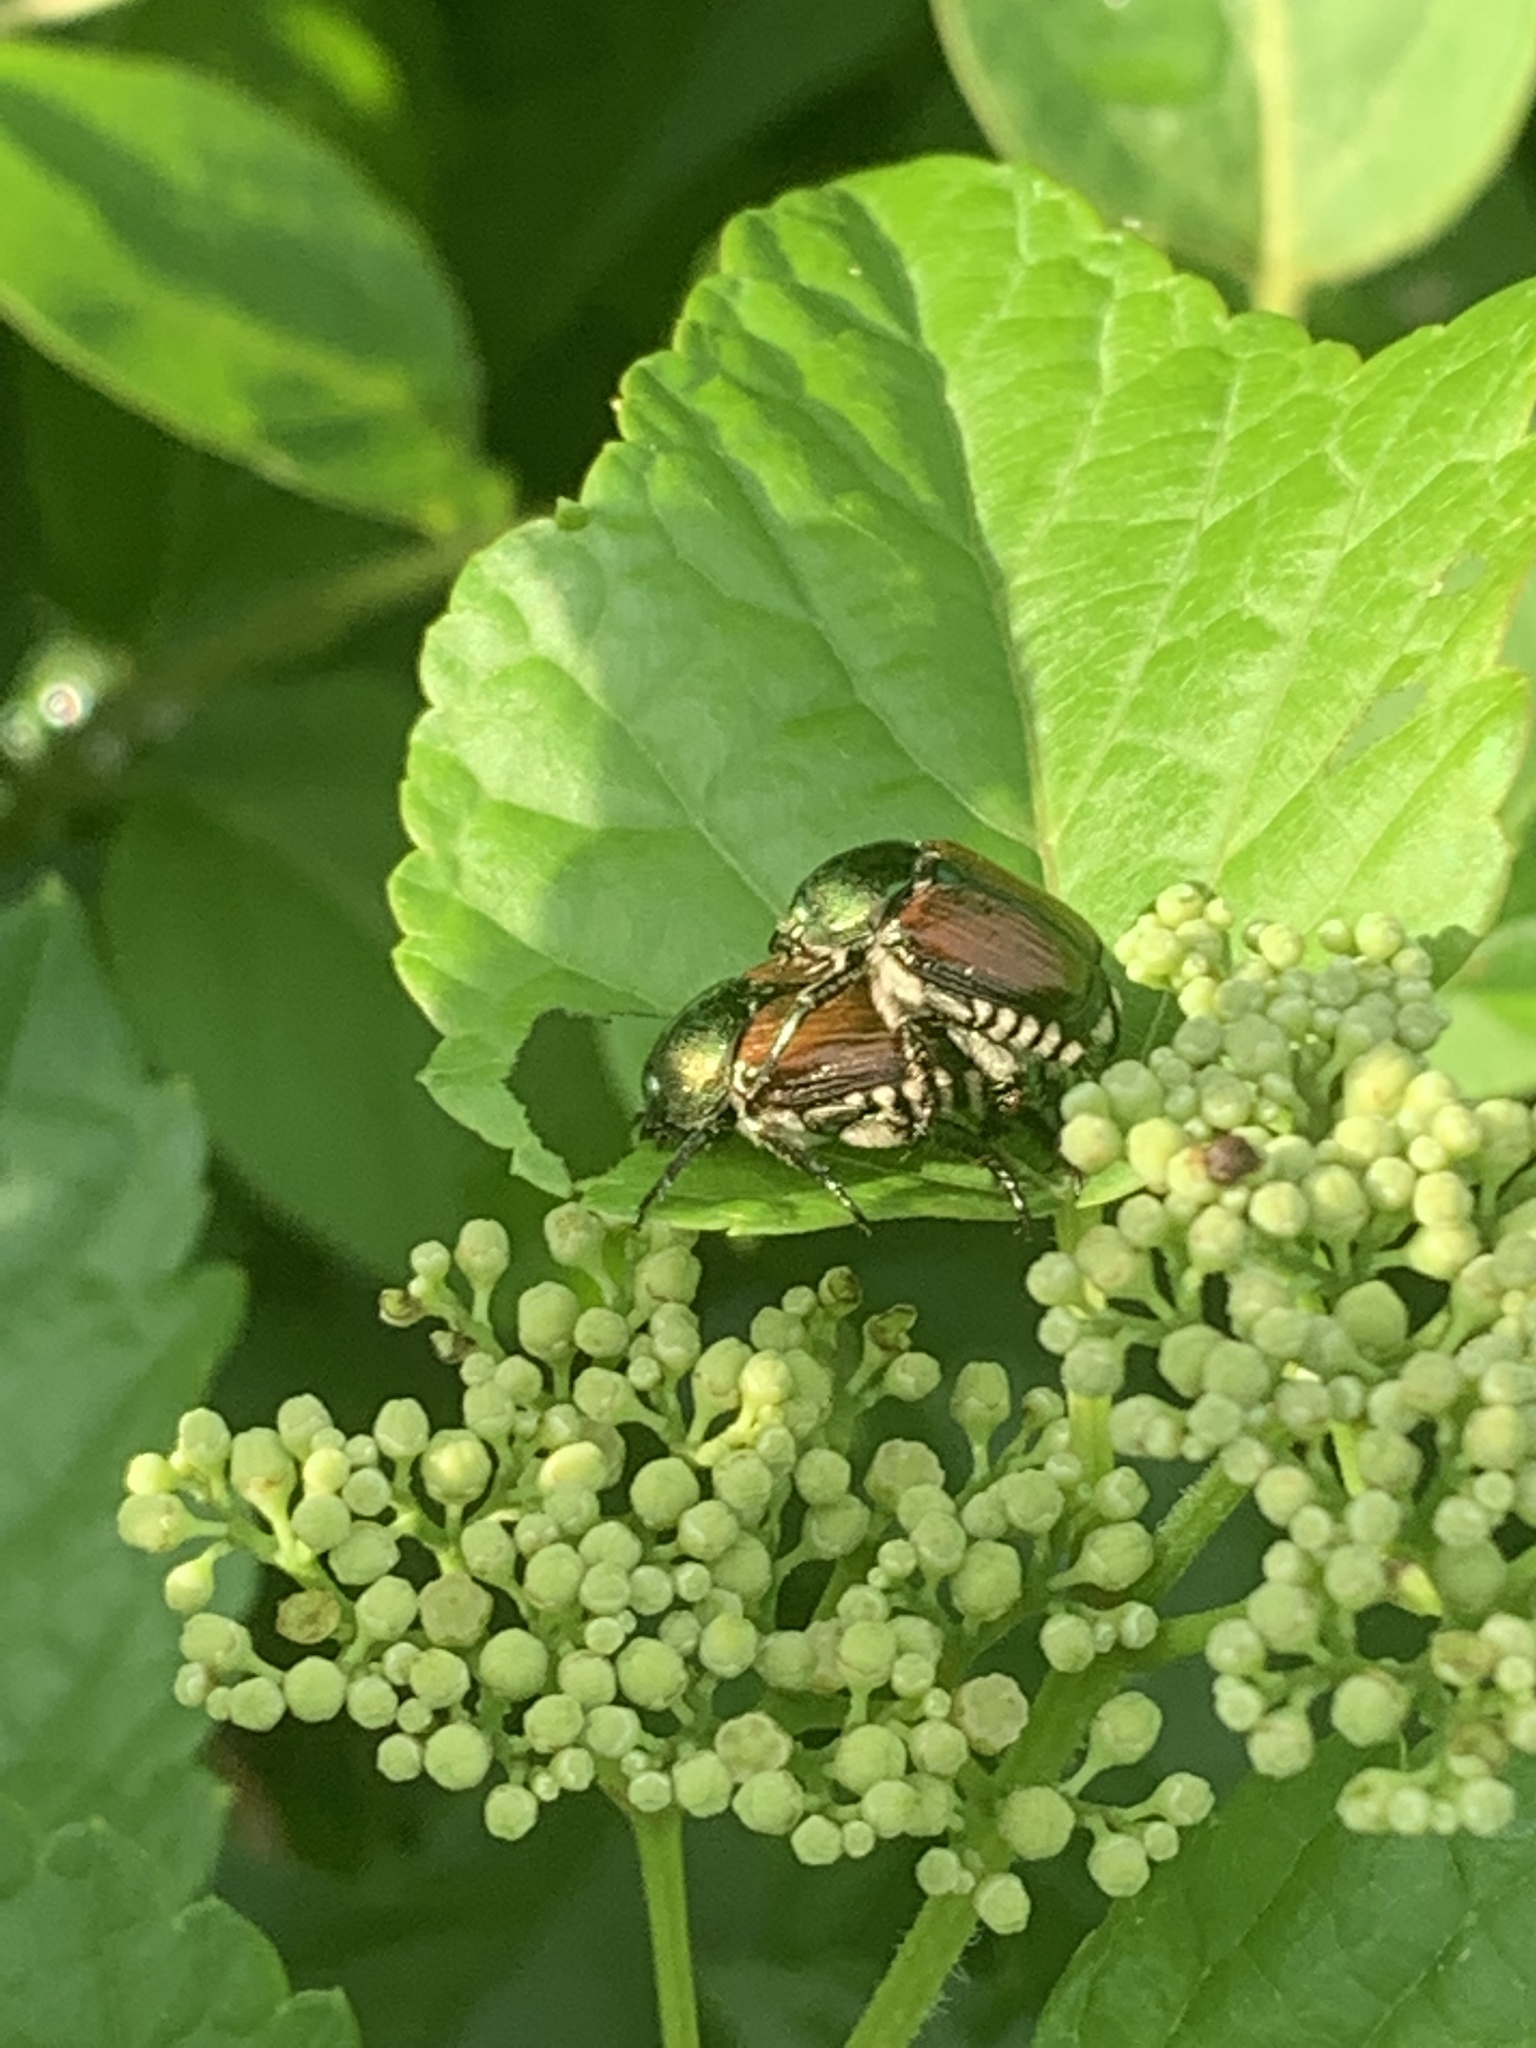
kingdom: Animalia
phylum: Arthropoda
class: Insecta
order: Coleoptera
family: Scarabaeidae
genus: Popillia
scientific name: Popillia japonica
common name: Japanese beetle
